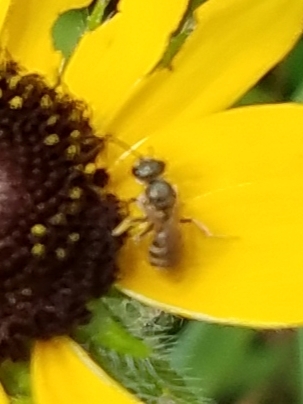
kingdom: Animalia
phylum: Arthropoda
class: Insecta
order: Hymenoptera
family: Halictidae
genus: Halictus
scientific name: Halictus confusus
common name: Southern bronze furrow bee
